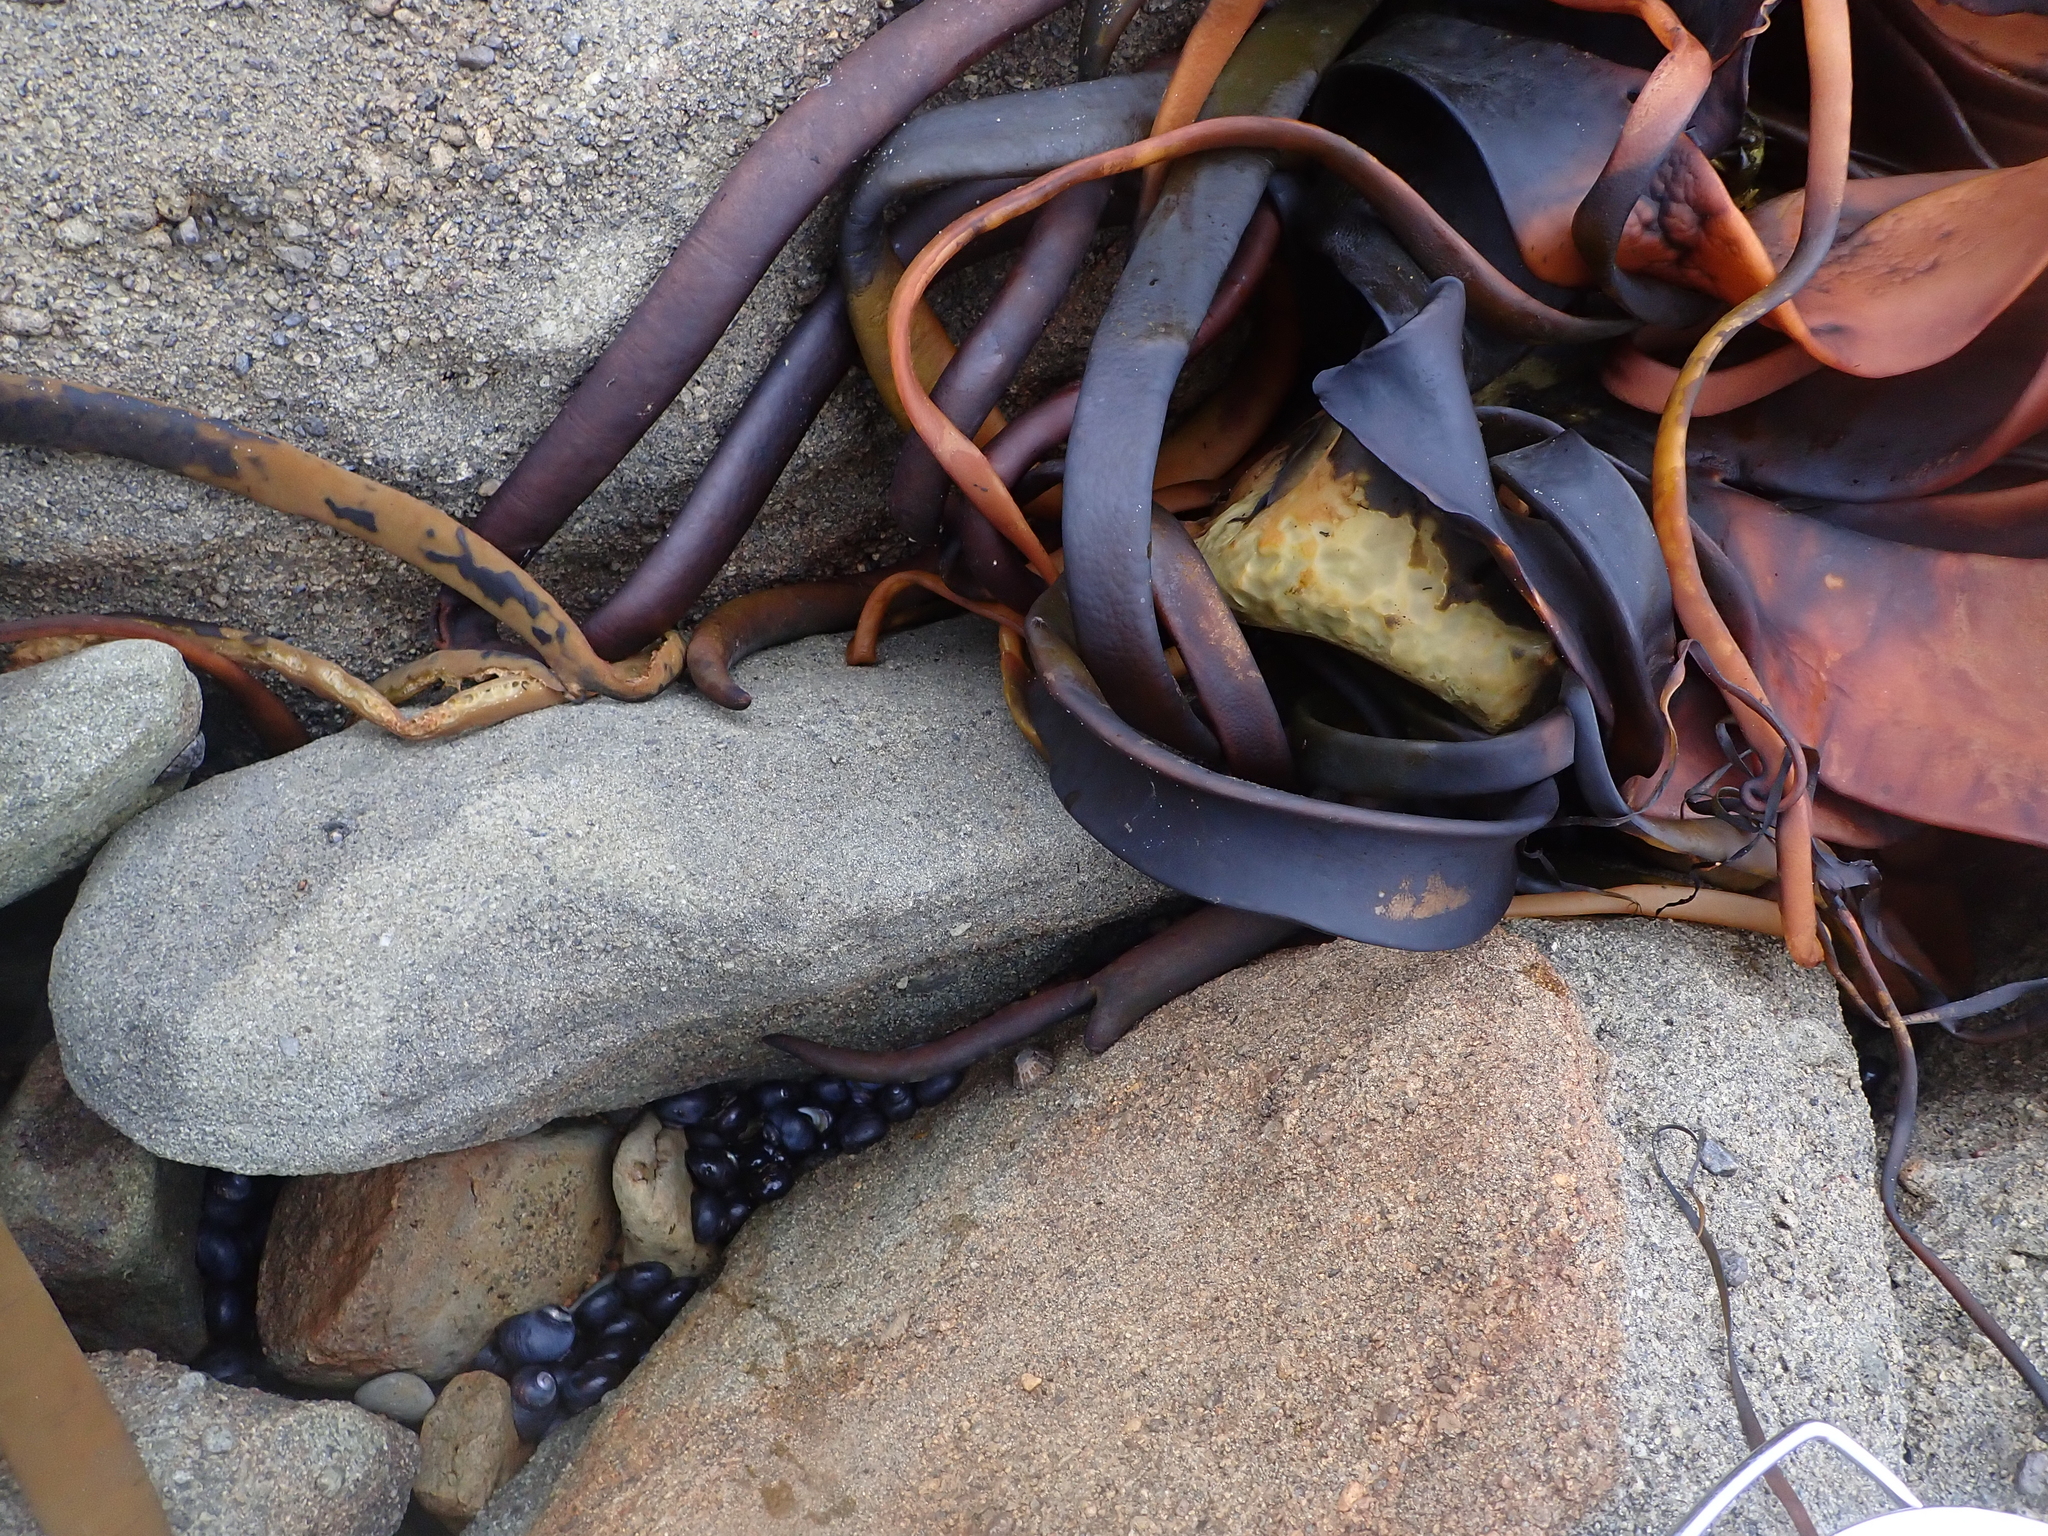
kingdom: Animalia
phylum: Mollusca
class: Gastropoda
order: Trochida
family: Trochidae
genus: Diloma
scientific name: Diloma nigerrimum
